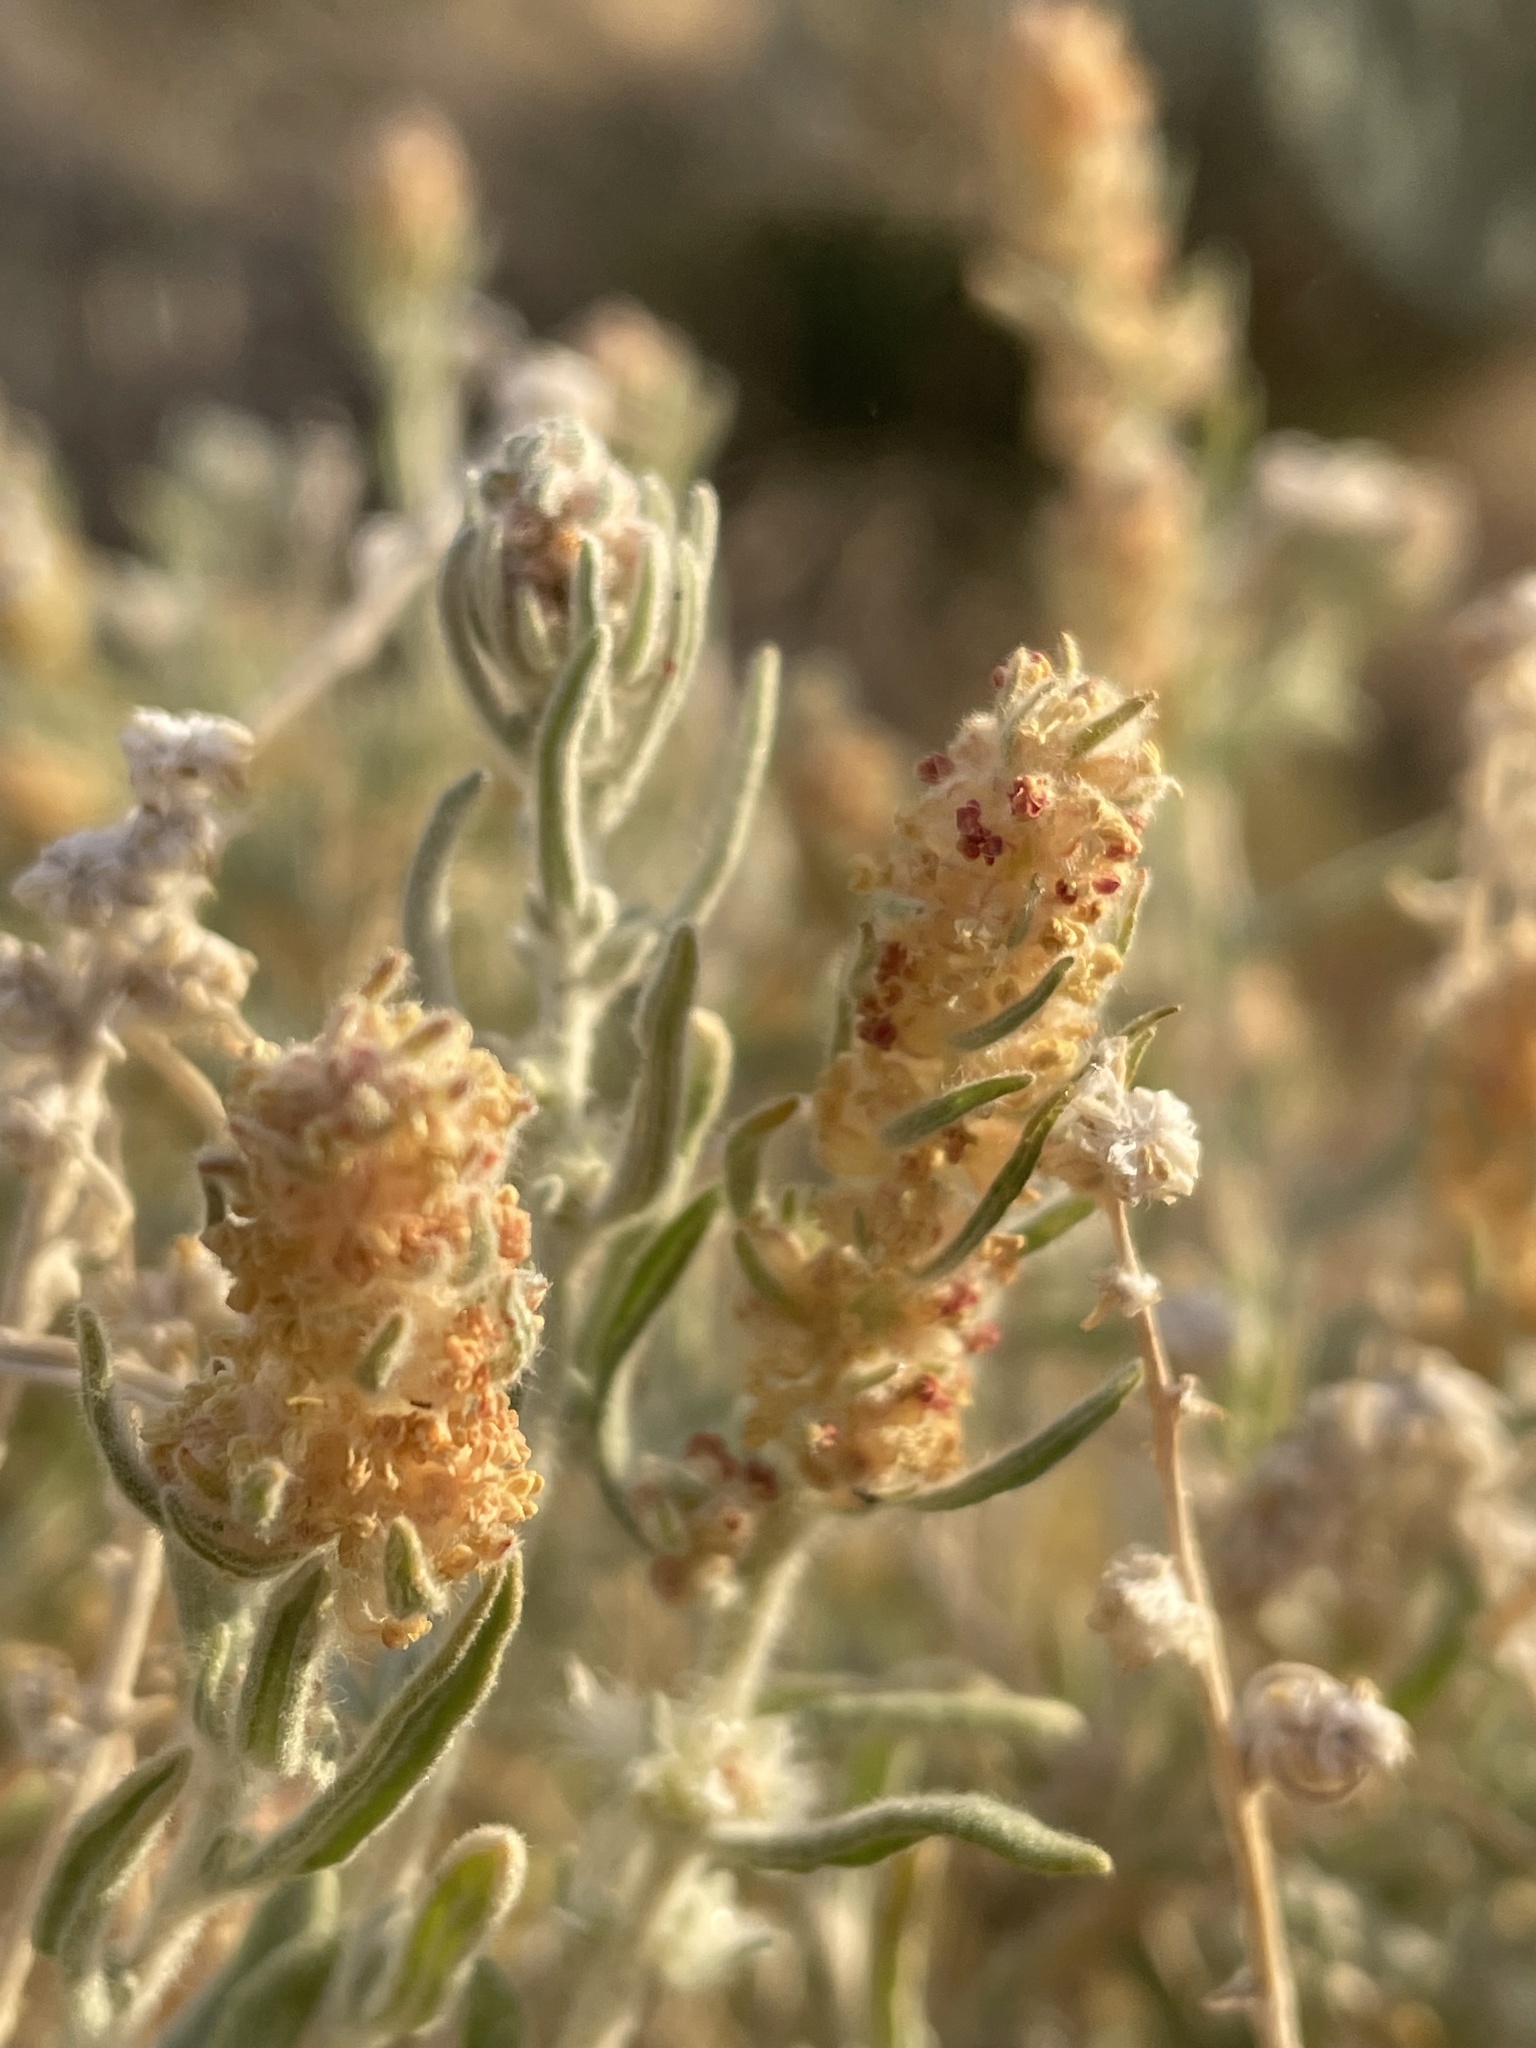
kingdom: Plantae
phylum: Tracheophyta
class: Magnoliopsida
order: Caryophyllales
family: Amaranthaceae
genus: Krascheninnikovia
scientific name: Krascheninnikovia lanata
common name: Winterfat
